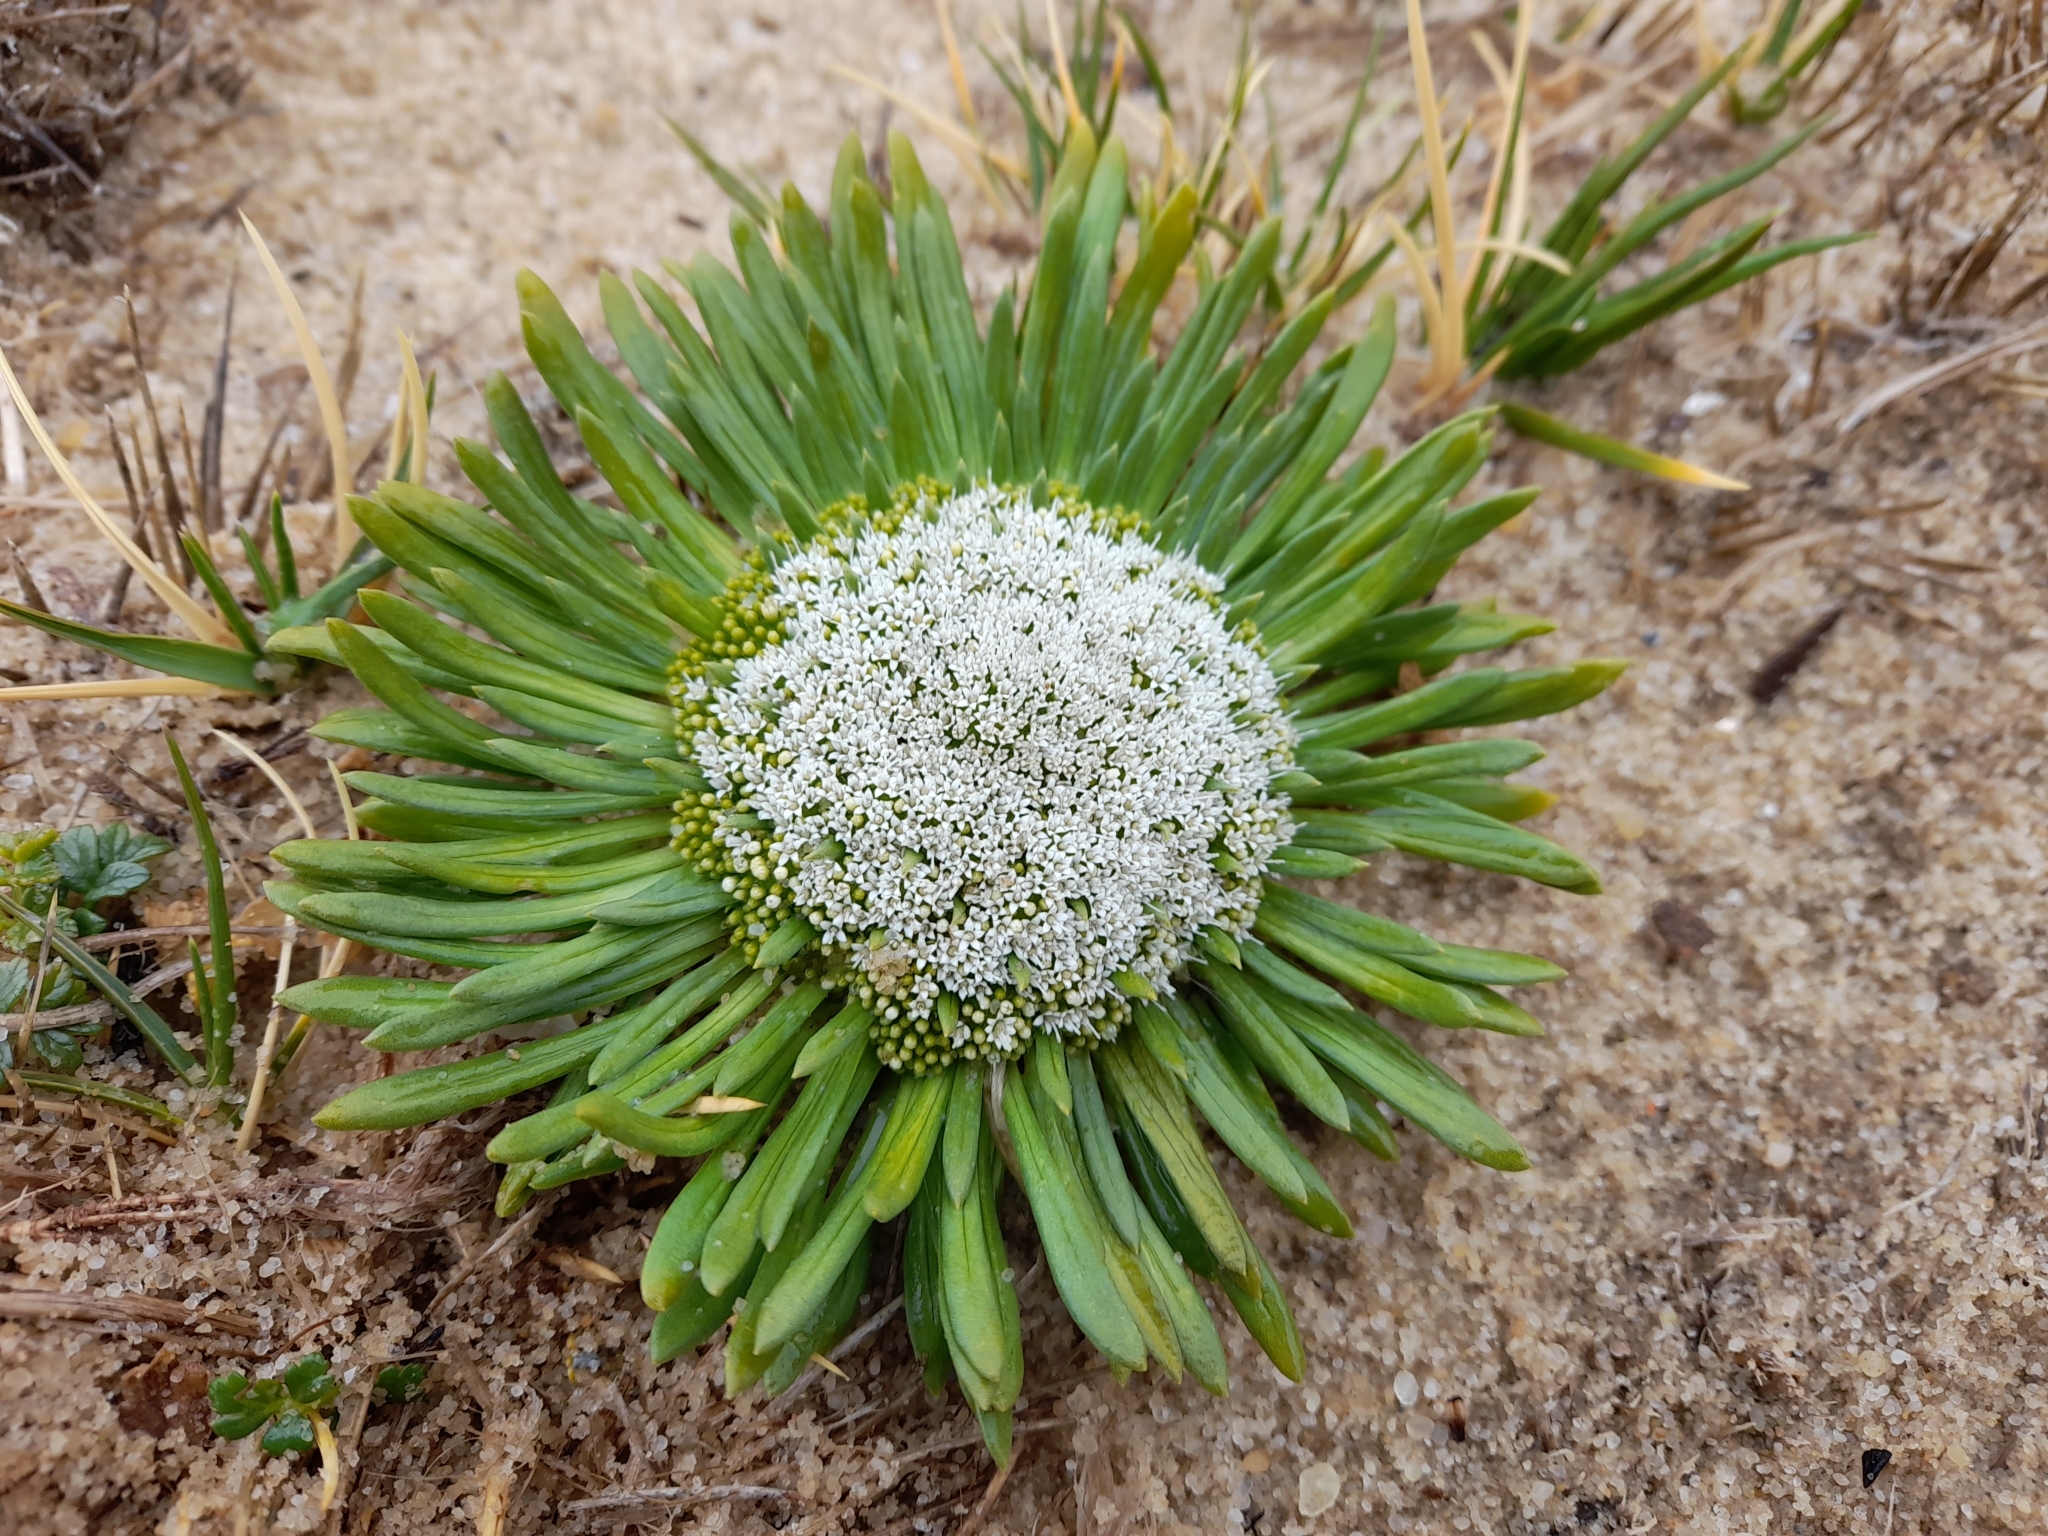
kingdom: Plantae
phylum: Tracheophyta
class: Magnoliopsida
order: Asterales
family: Calyceraceae
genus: Gamocarpha
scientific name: Gamocarpha falklandica
